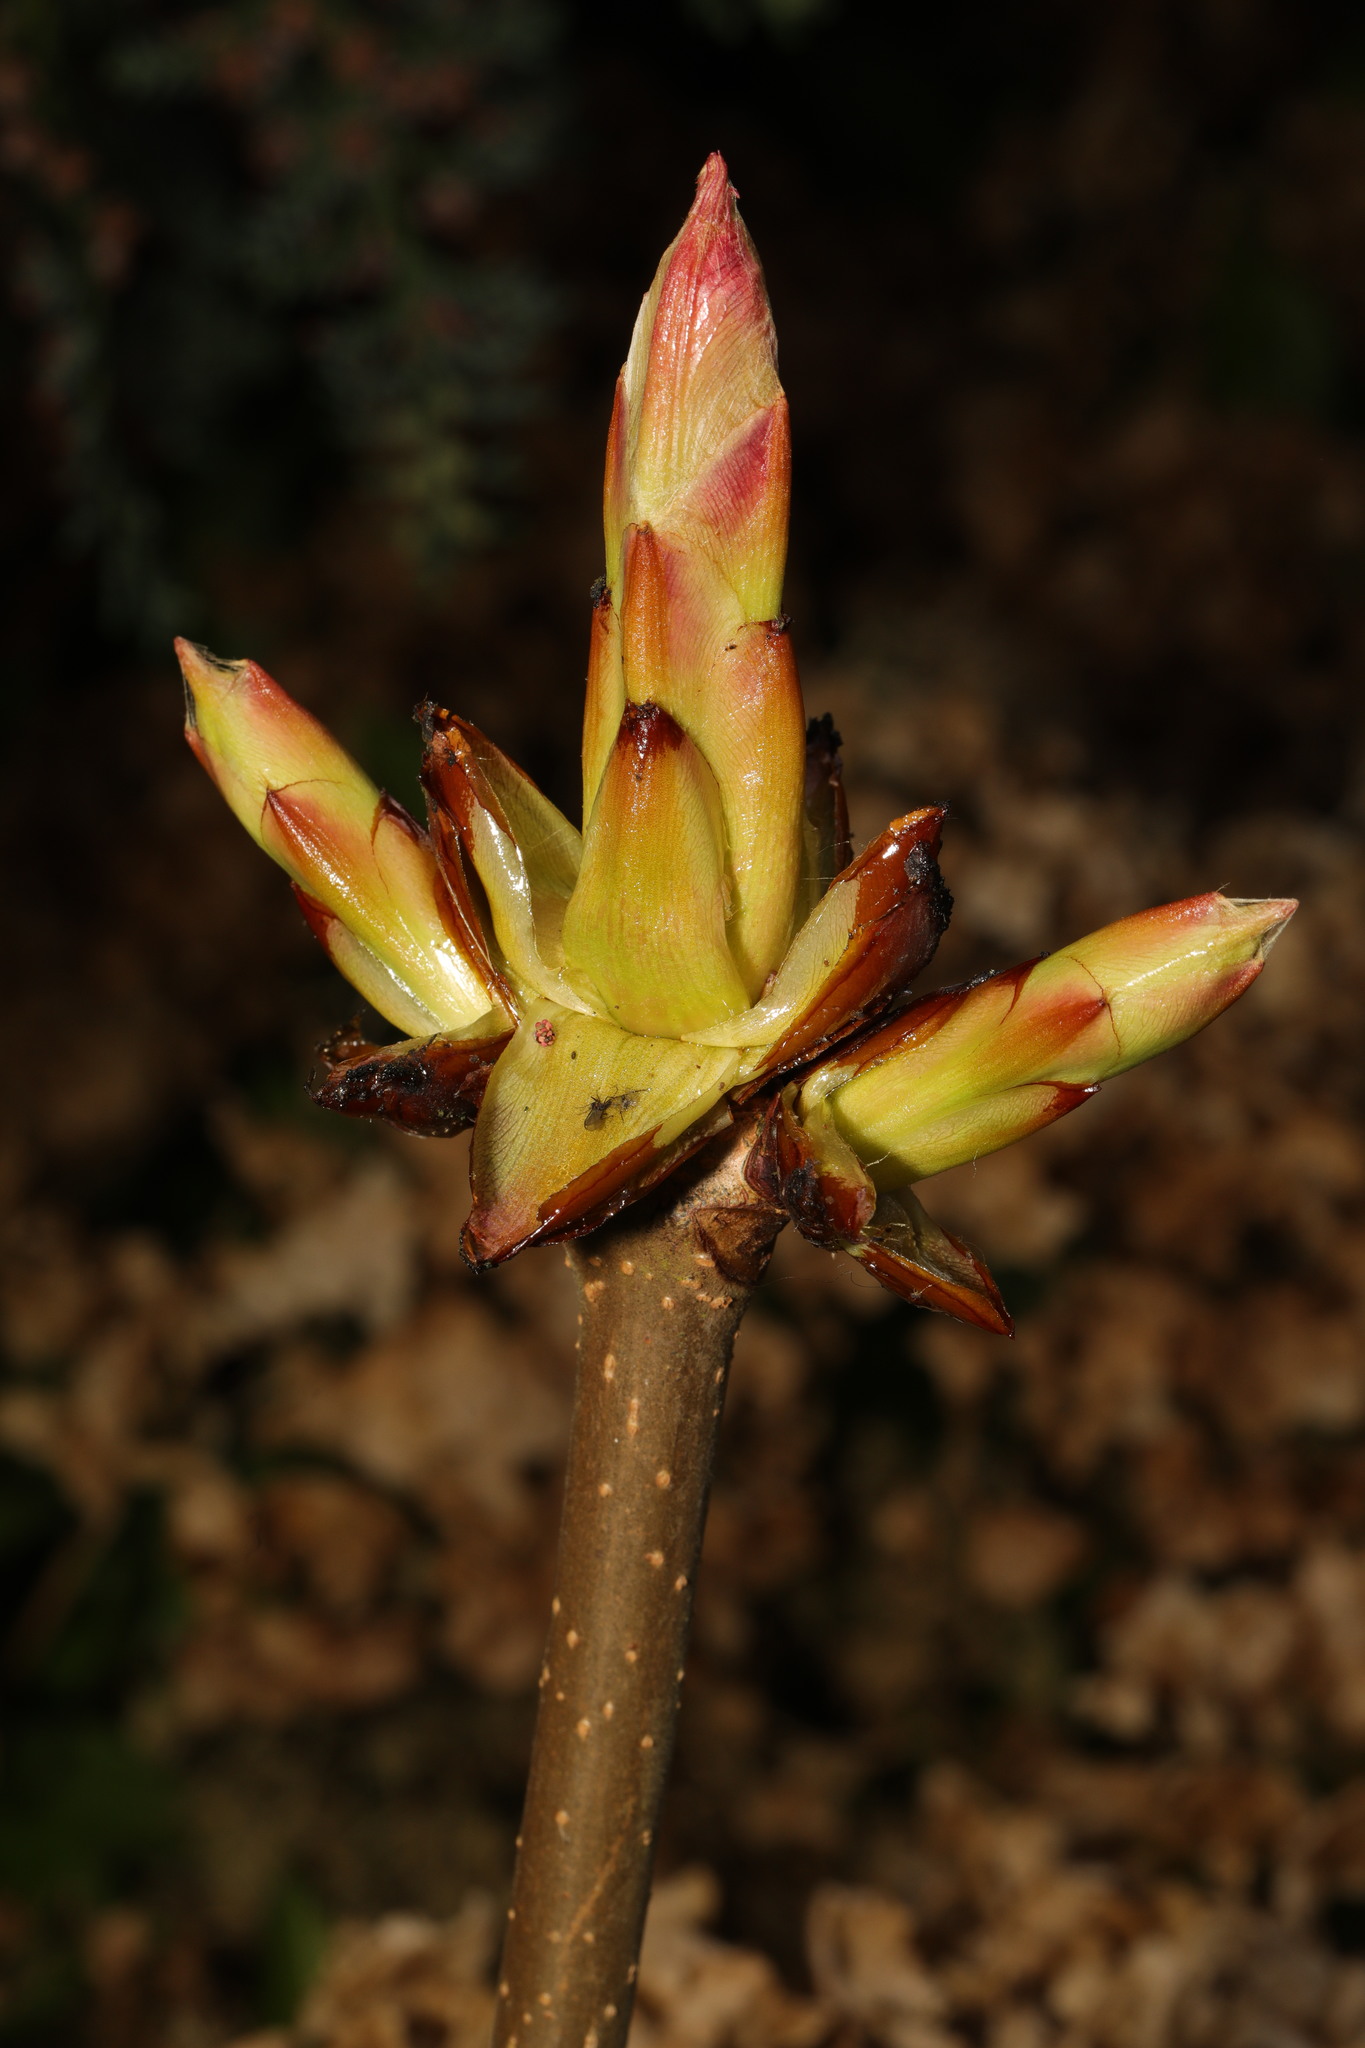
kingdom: Plantae
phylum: Tracheophyta
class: Magnoliopsida
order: Sapindales
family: Sapindaceae
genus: Aesculus
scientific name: Aesculus hippocastanum
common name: Horse-chestnut
